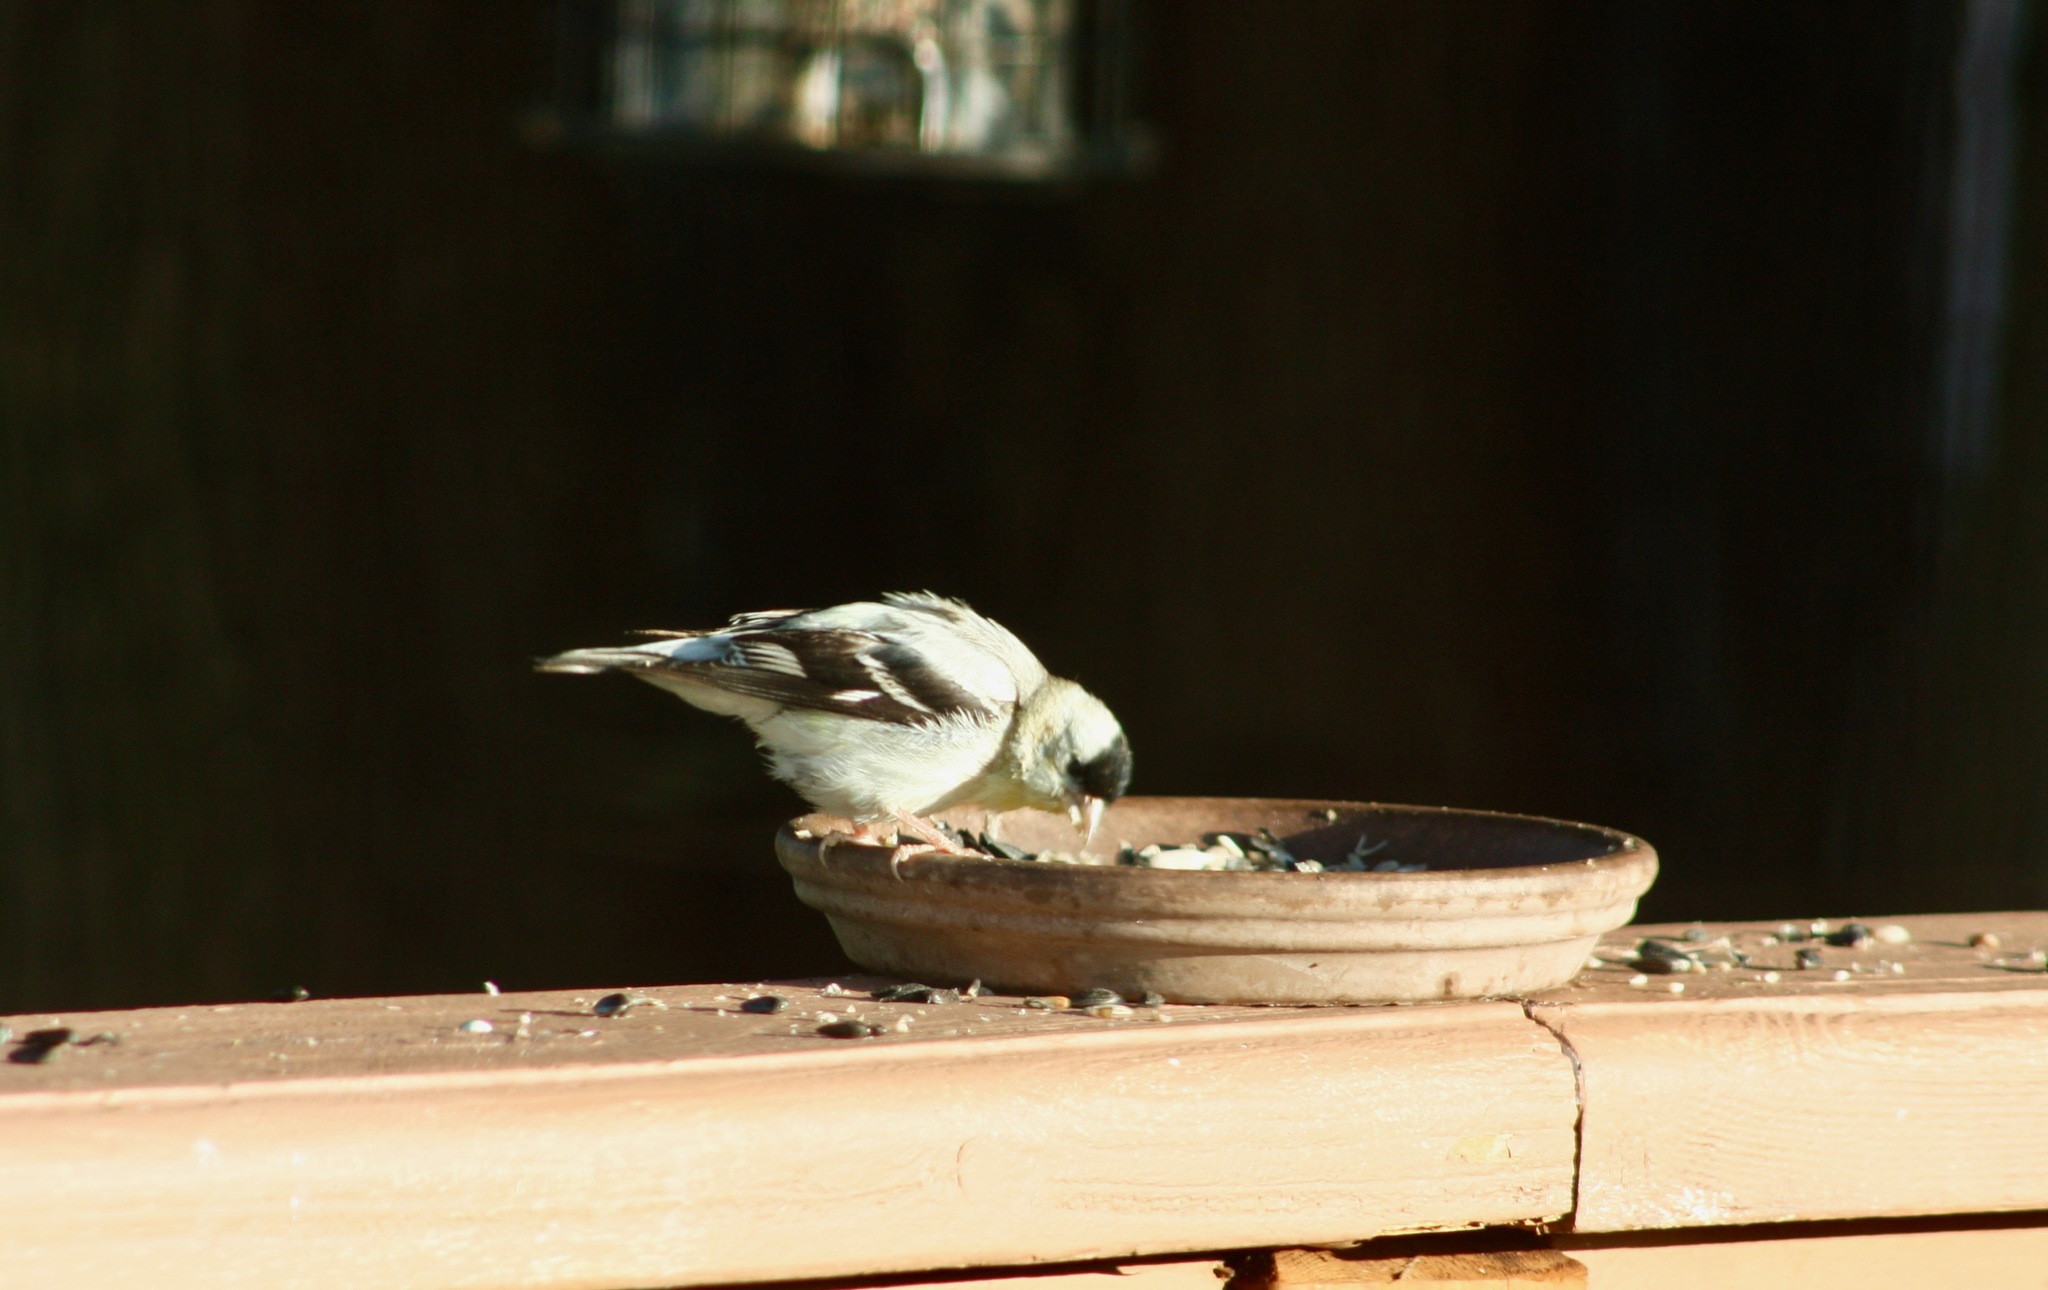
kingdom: Animalia
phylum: Chordata
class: Aves
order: Passeriformes
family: Fringillidae
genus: Spinus
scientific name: Spinus tristis
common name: American goldfinch
